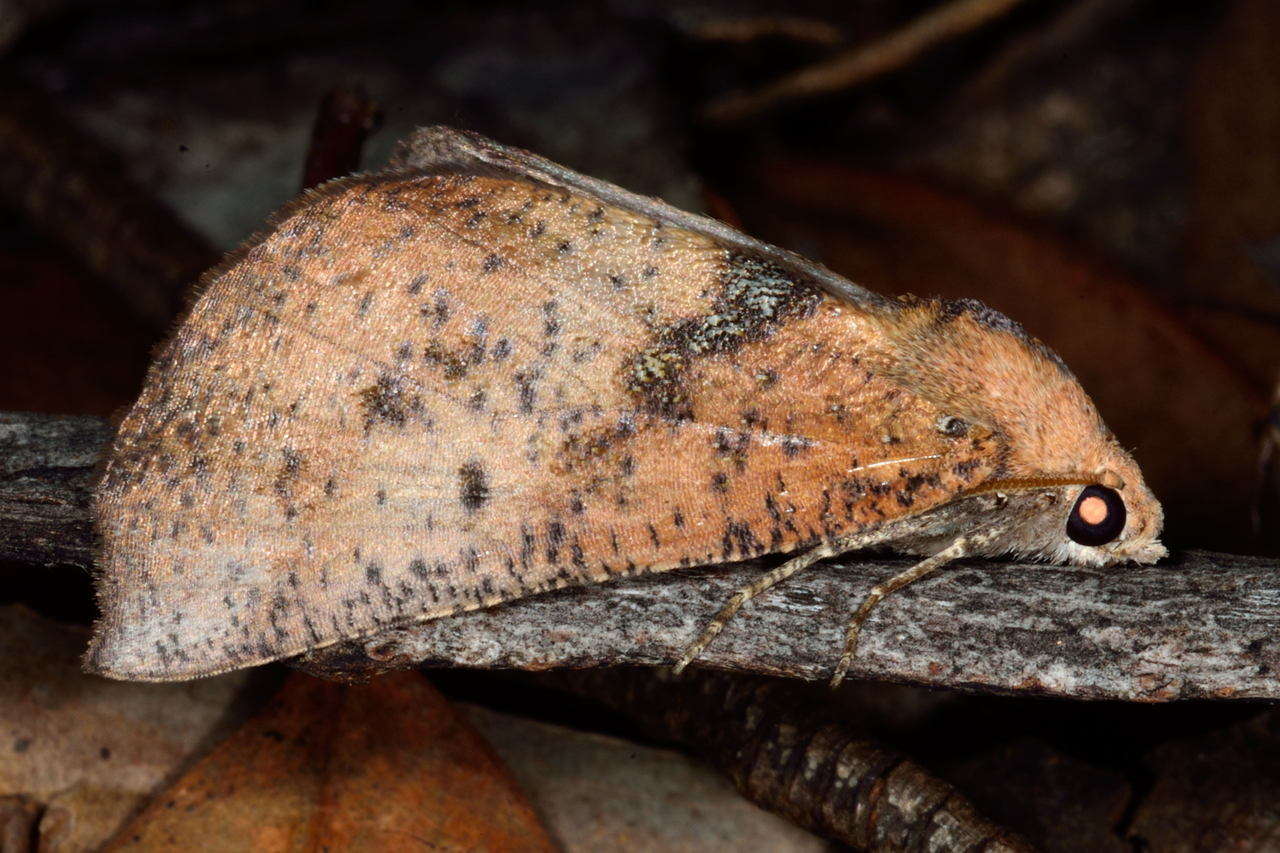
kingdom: Animalia
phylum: Arthropoda
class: Insecta
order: Lepidoptera
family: Geometridae
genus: Mnesampela
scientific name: Mnesampela comarcha
